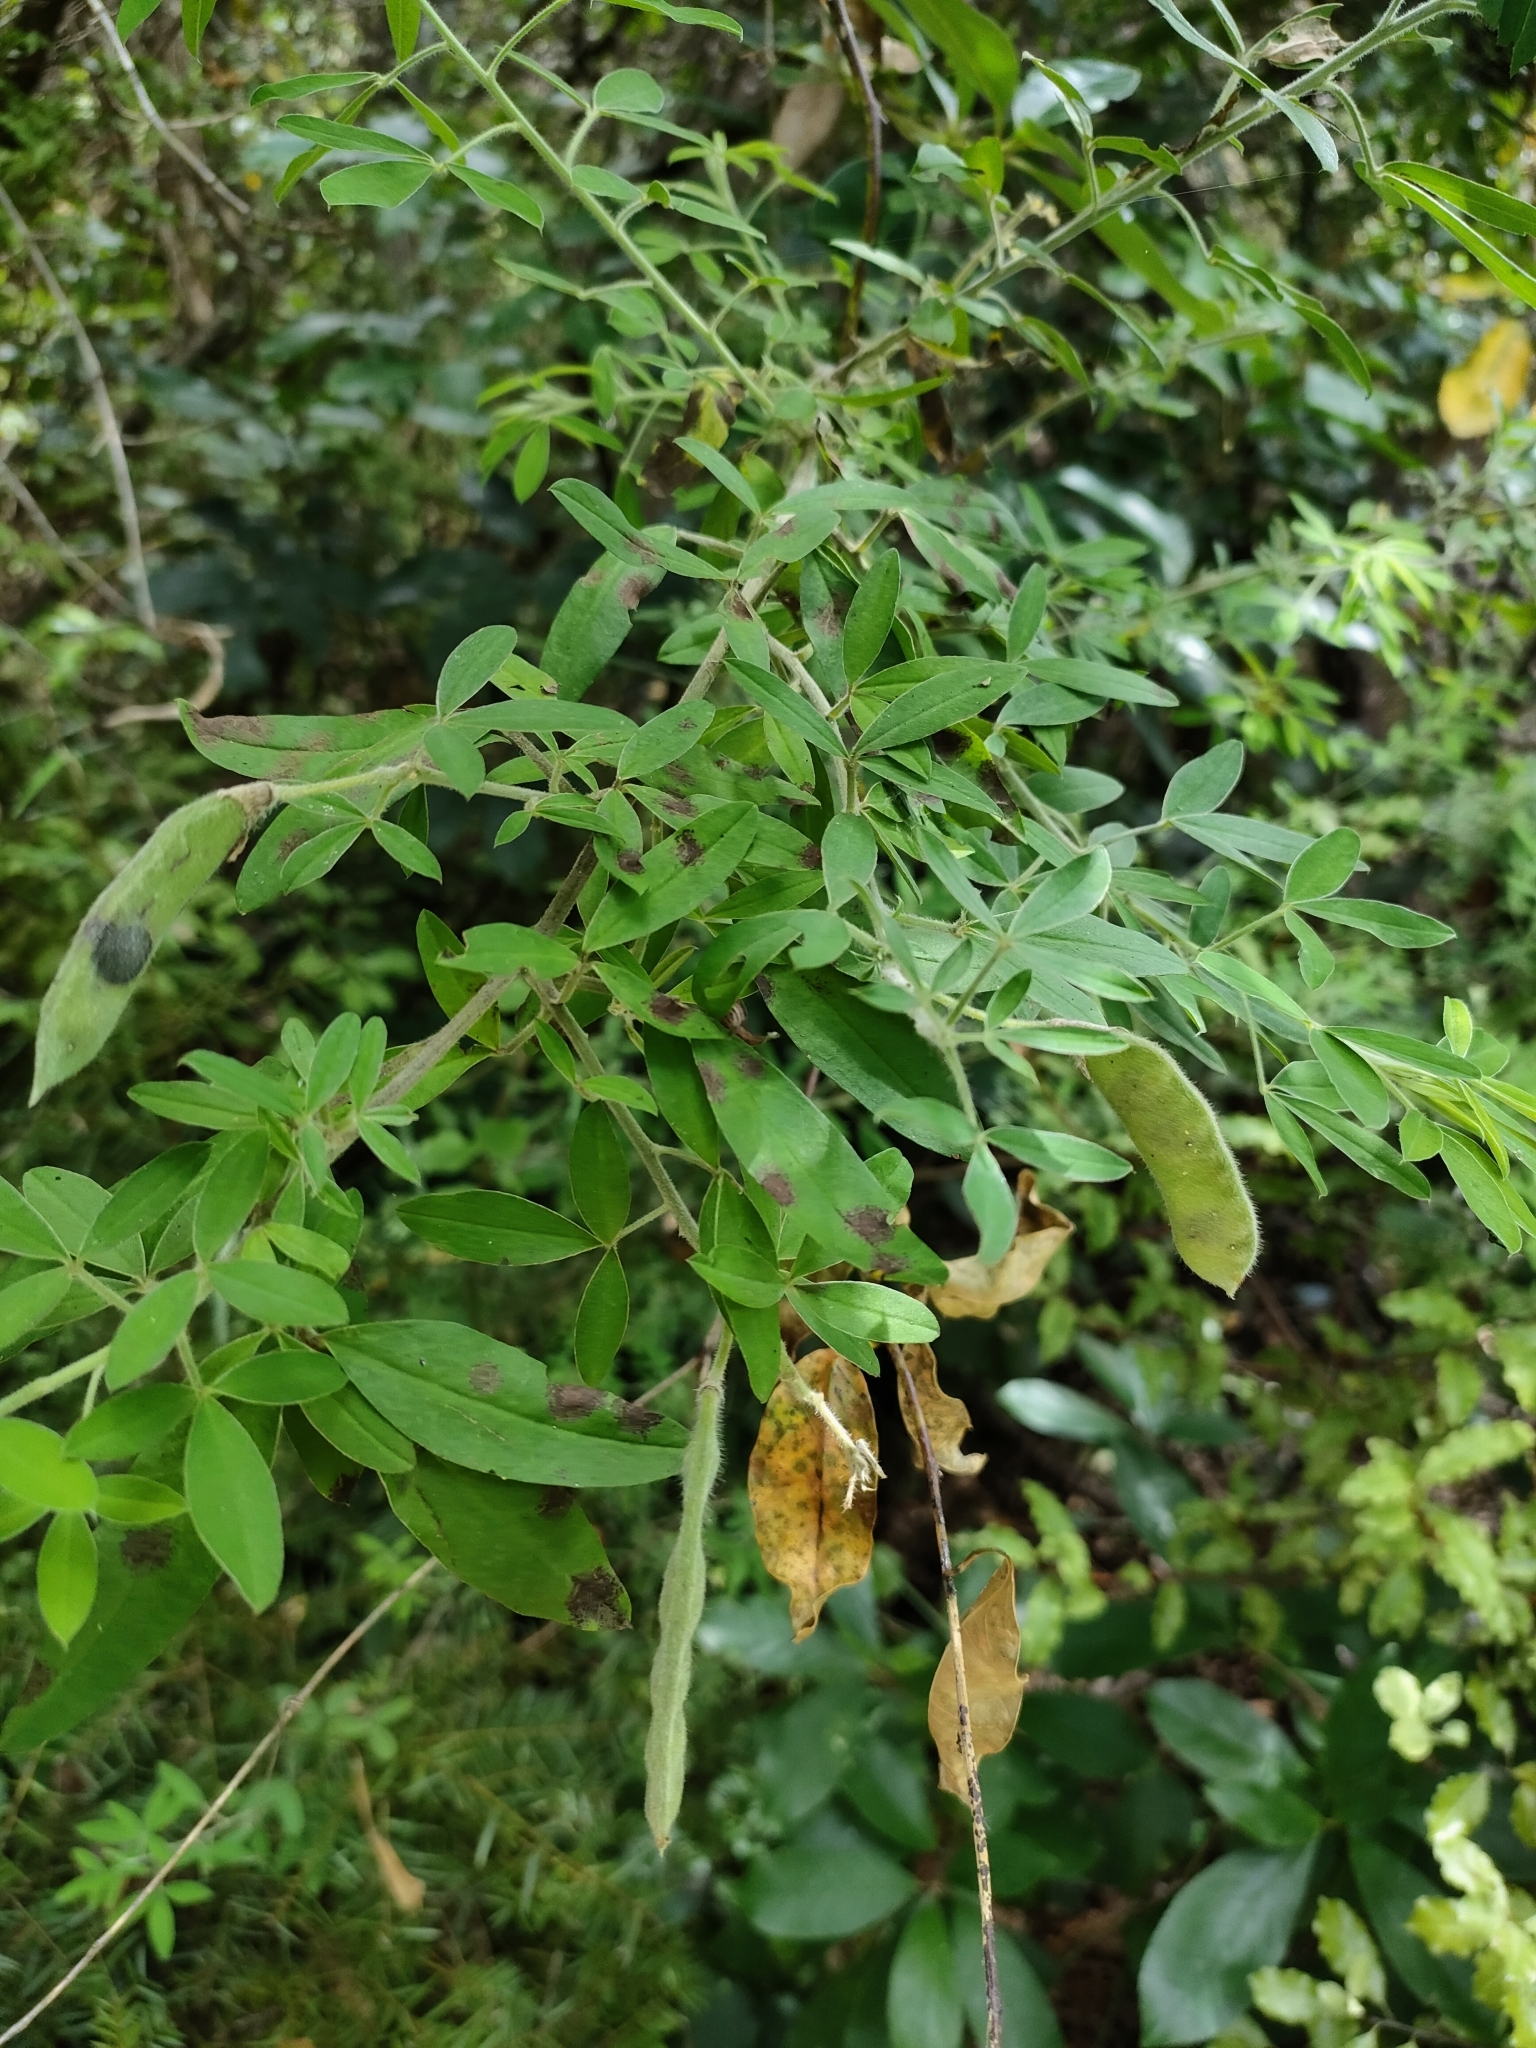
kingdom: Plantae
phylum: Tracheophyta
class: Magnoliopsida
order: Fabales
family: Fabaceae
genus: Chamaecytisus
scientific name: Chamaecytisus prolifer
